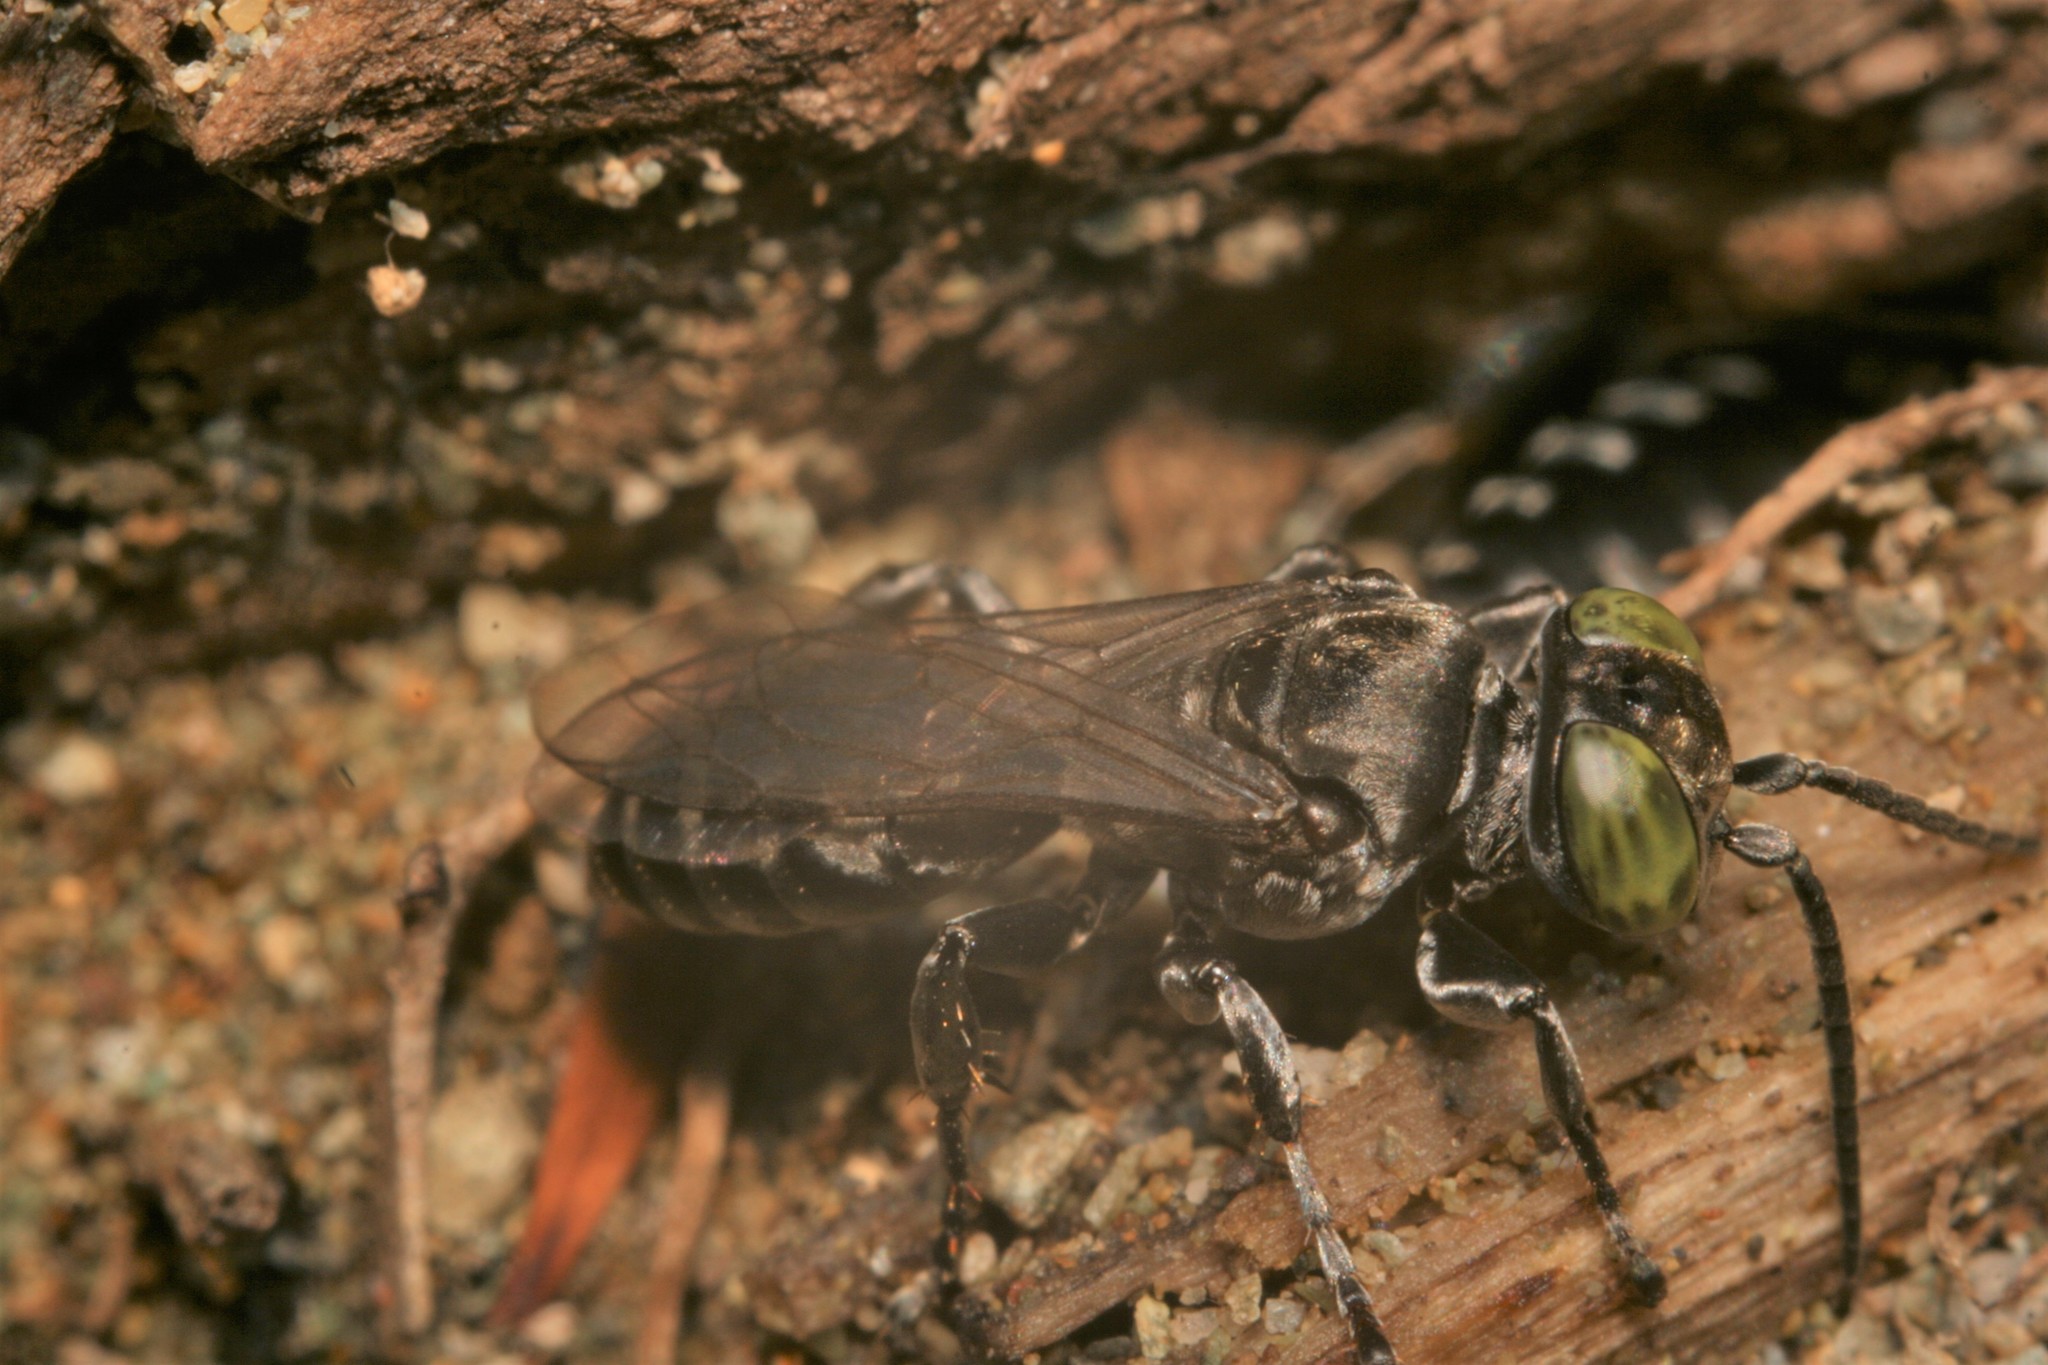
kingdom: Animalia
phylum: Arthropoda
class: Insecta
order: Hymenoptera
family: Crabronidae
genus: Tachysphex
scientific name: Tachysphex nigerrimus
